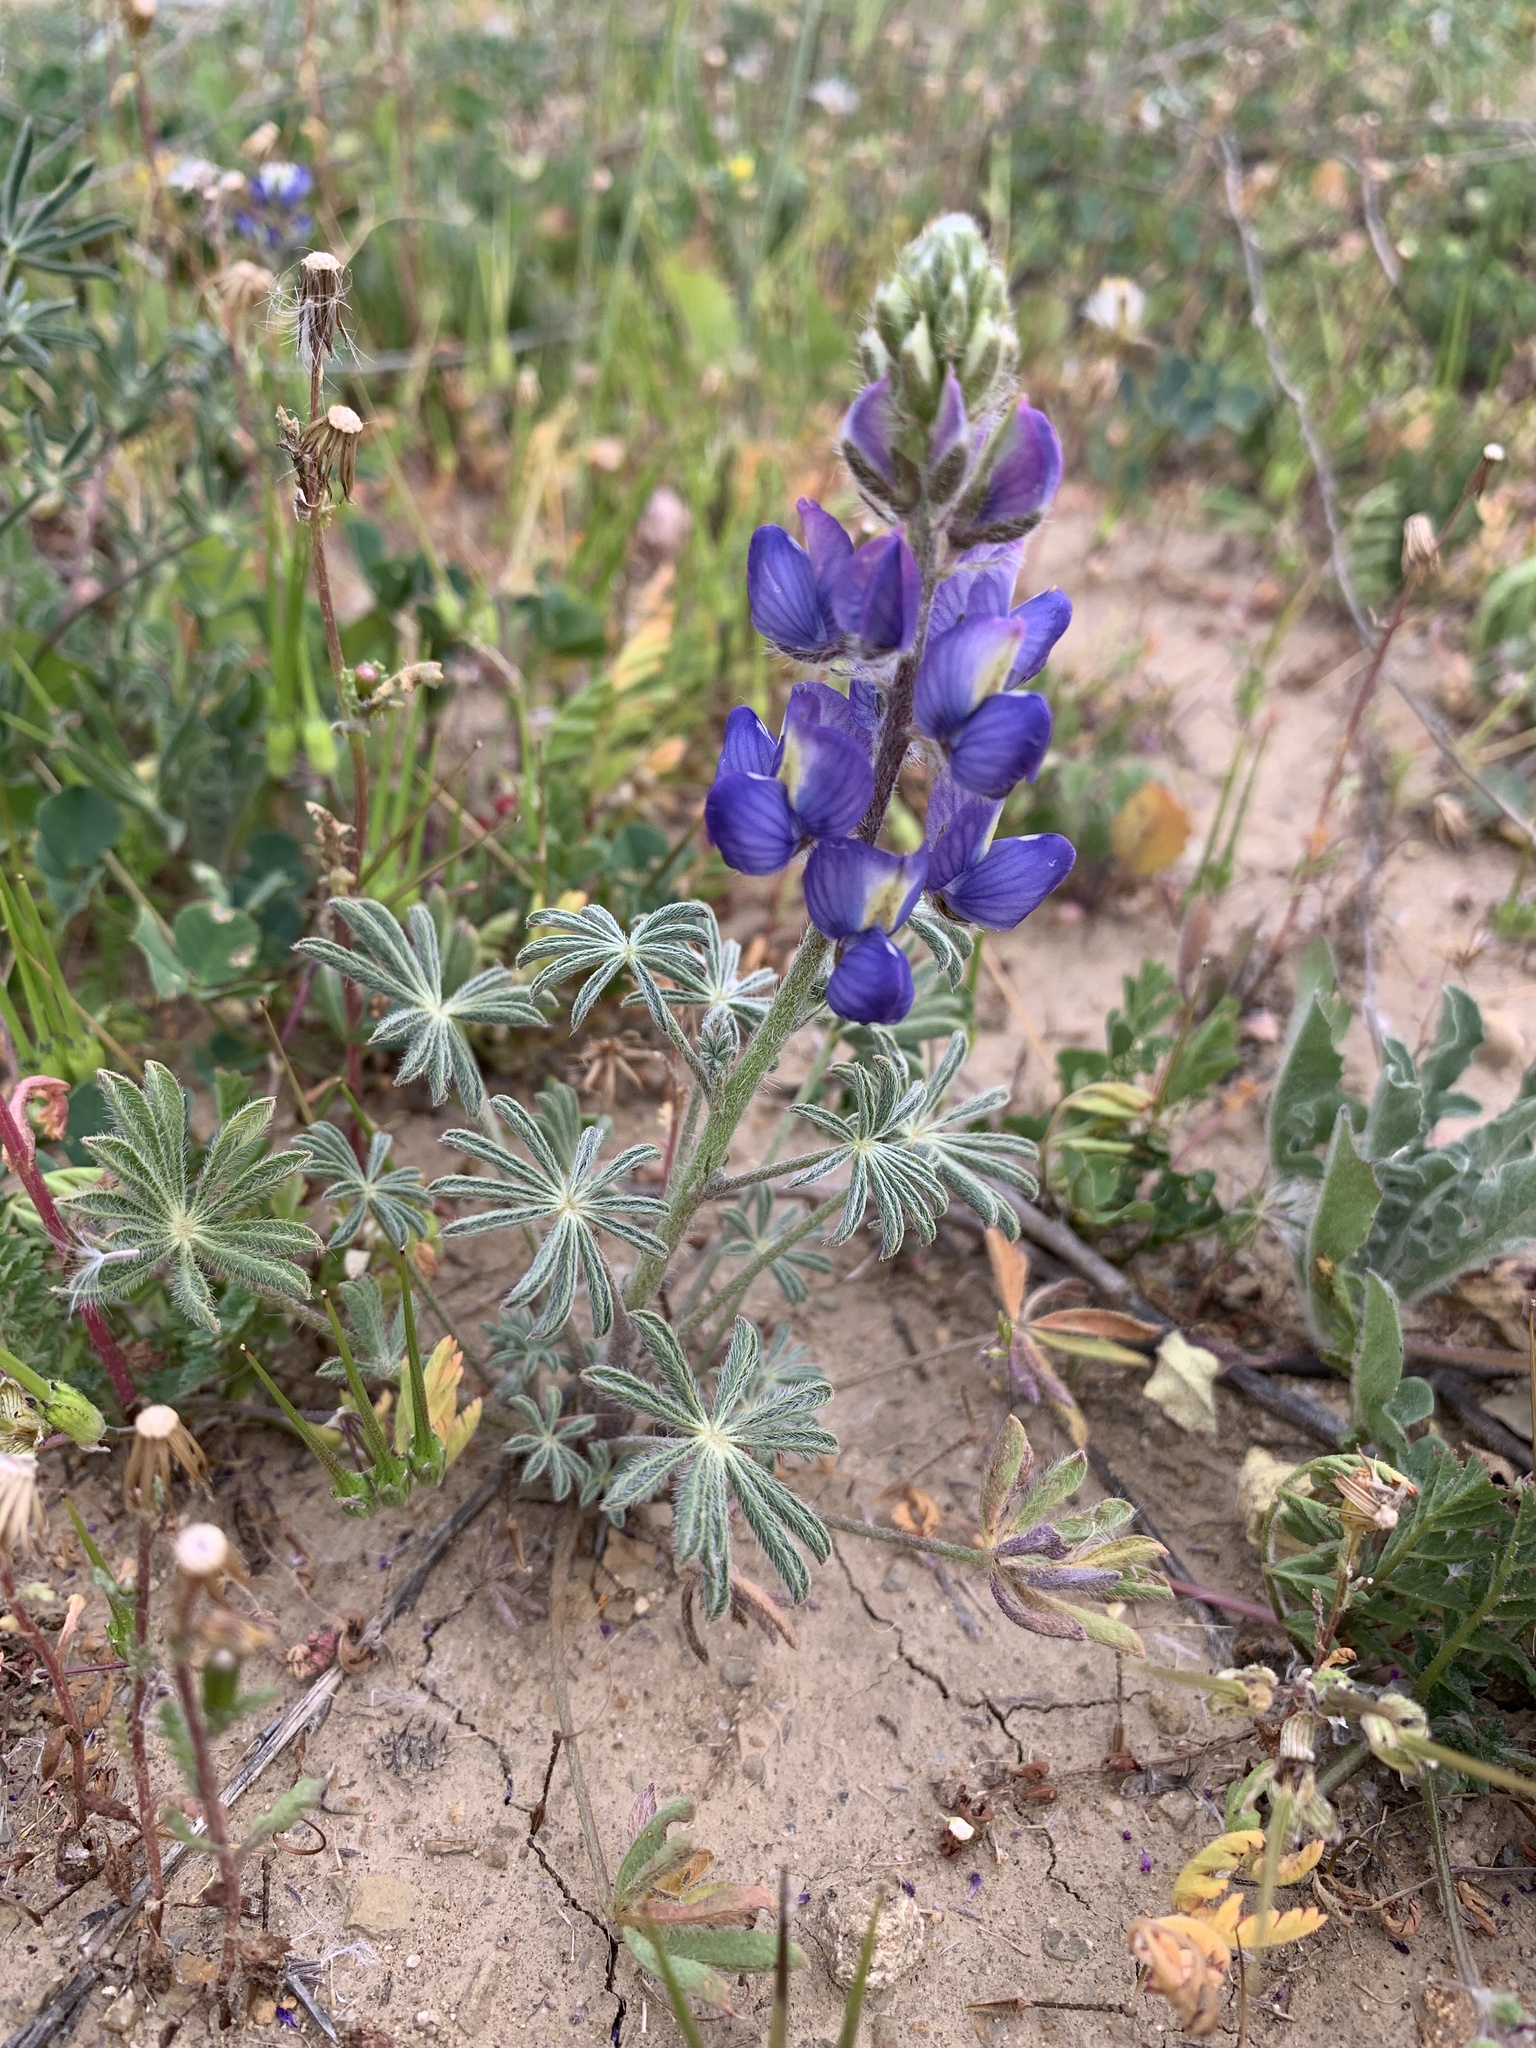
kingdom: Plantae
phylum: Tracheophyta
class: Magnoliopsida
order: Fabales
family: Fabaceae
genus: Lupinus
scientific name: Lupinus sparsiflorus
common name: Coulter's lupine
